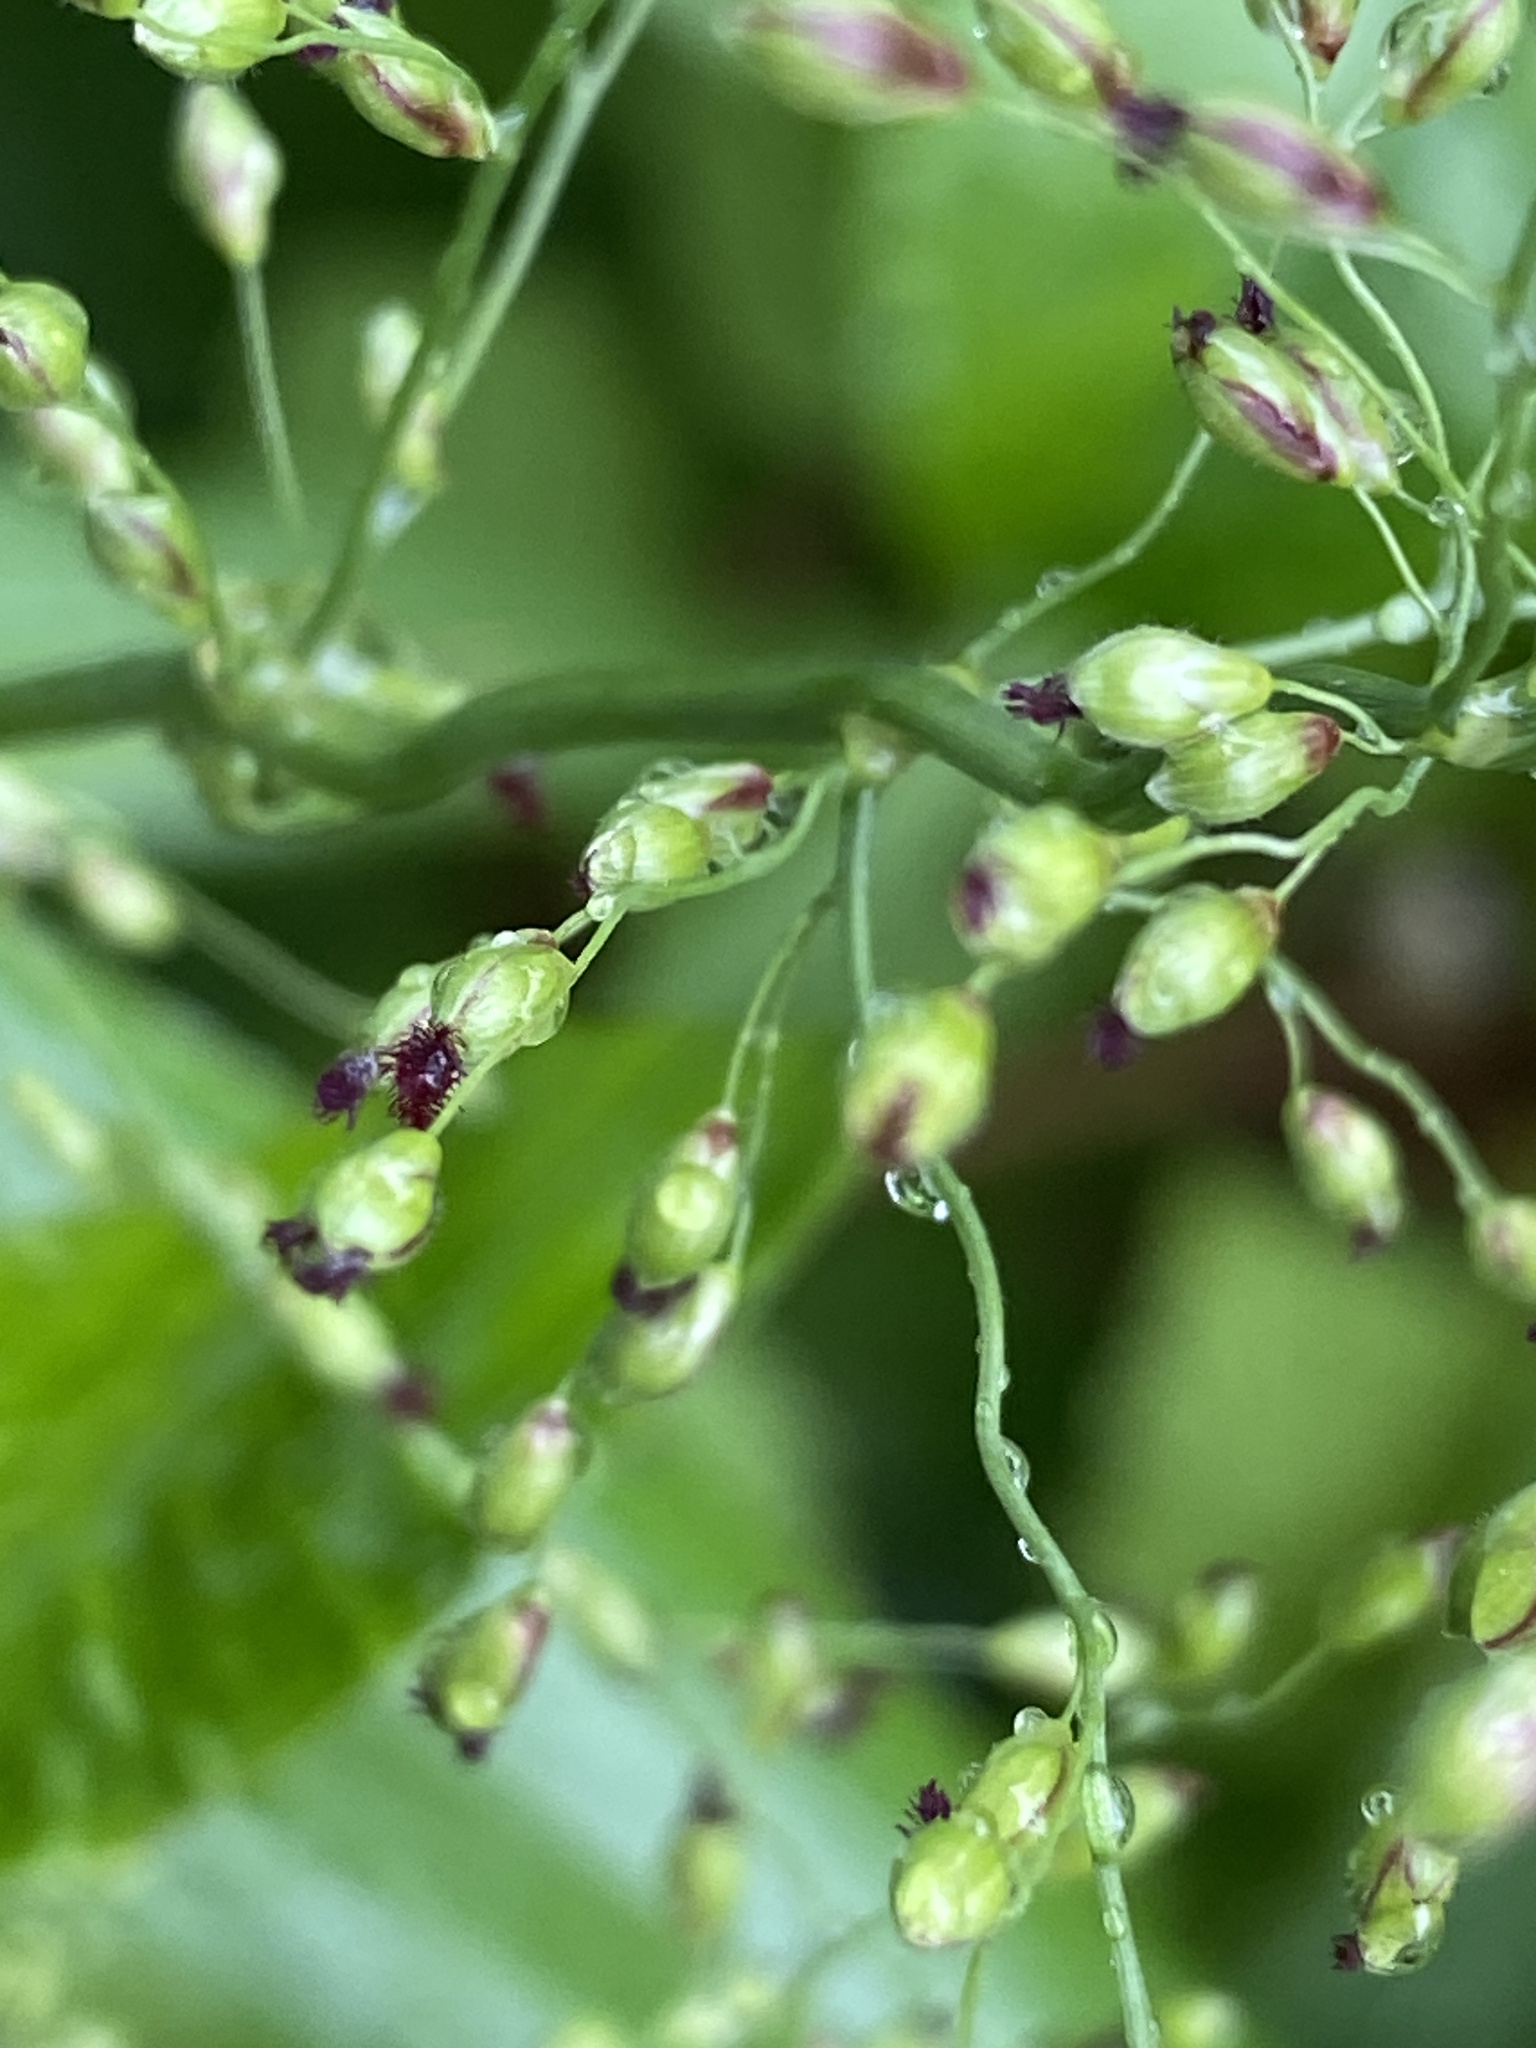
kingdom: Plantae
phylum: Tracheophyta
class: Liliopsida
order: Poales
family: Poaceae
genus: Dichanthelium
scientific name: Dichanthelium clandestinum
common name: Deer-tongue grass
